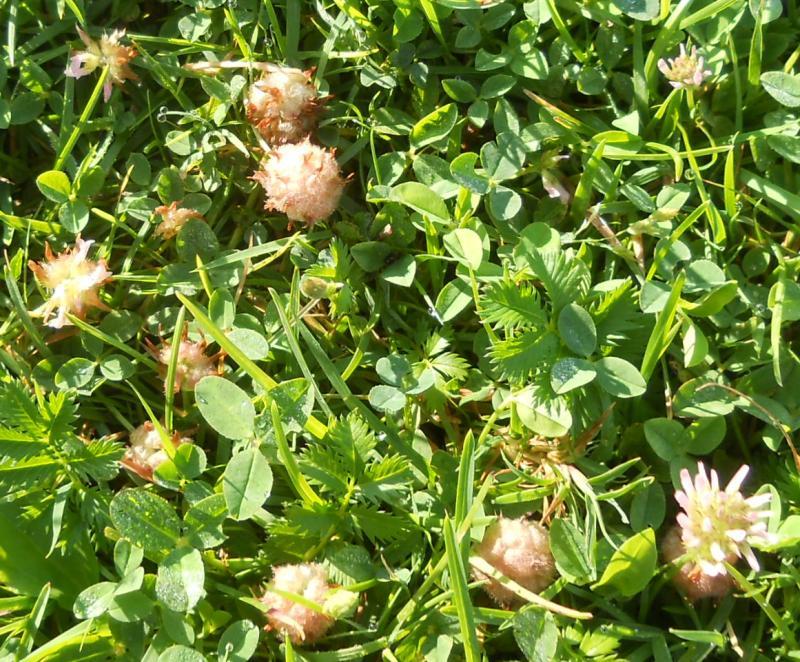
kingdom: Plantae
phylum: Tracheophyta
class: Magnoliopsida
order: Fabales
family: Fabaceae
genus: Trifolium
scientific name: Trifolium fragiferum
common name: Strawberry clover
